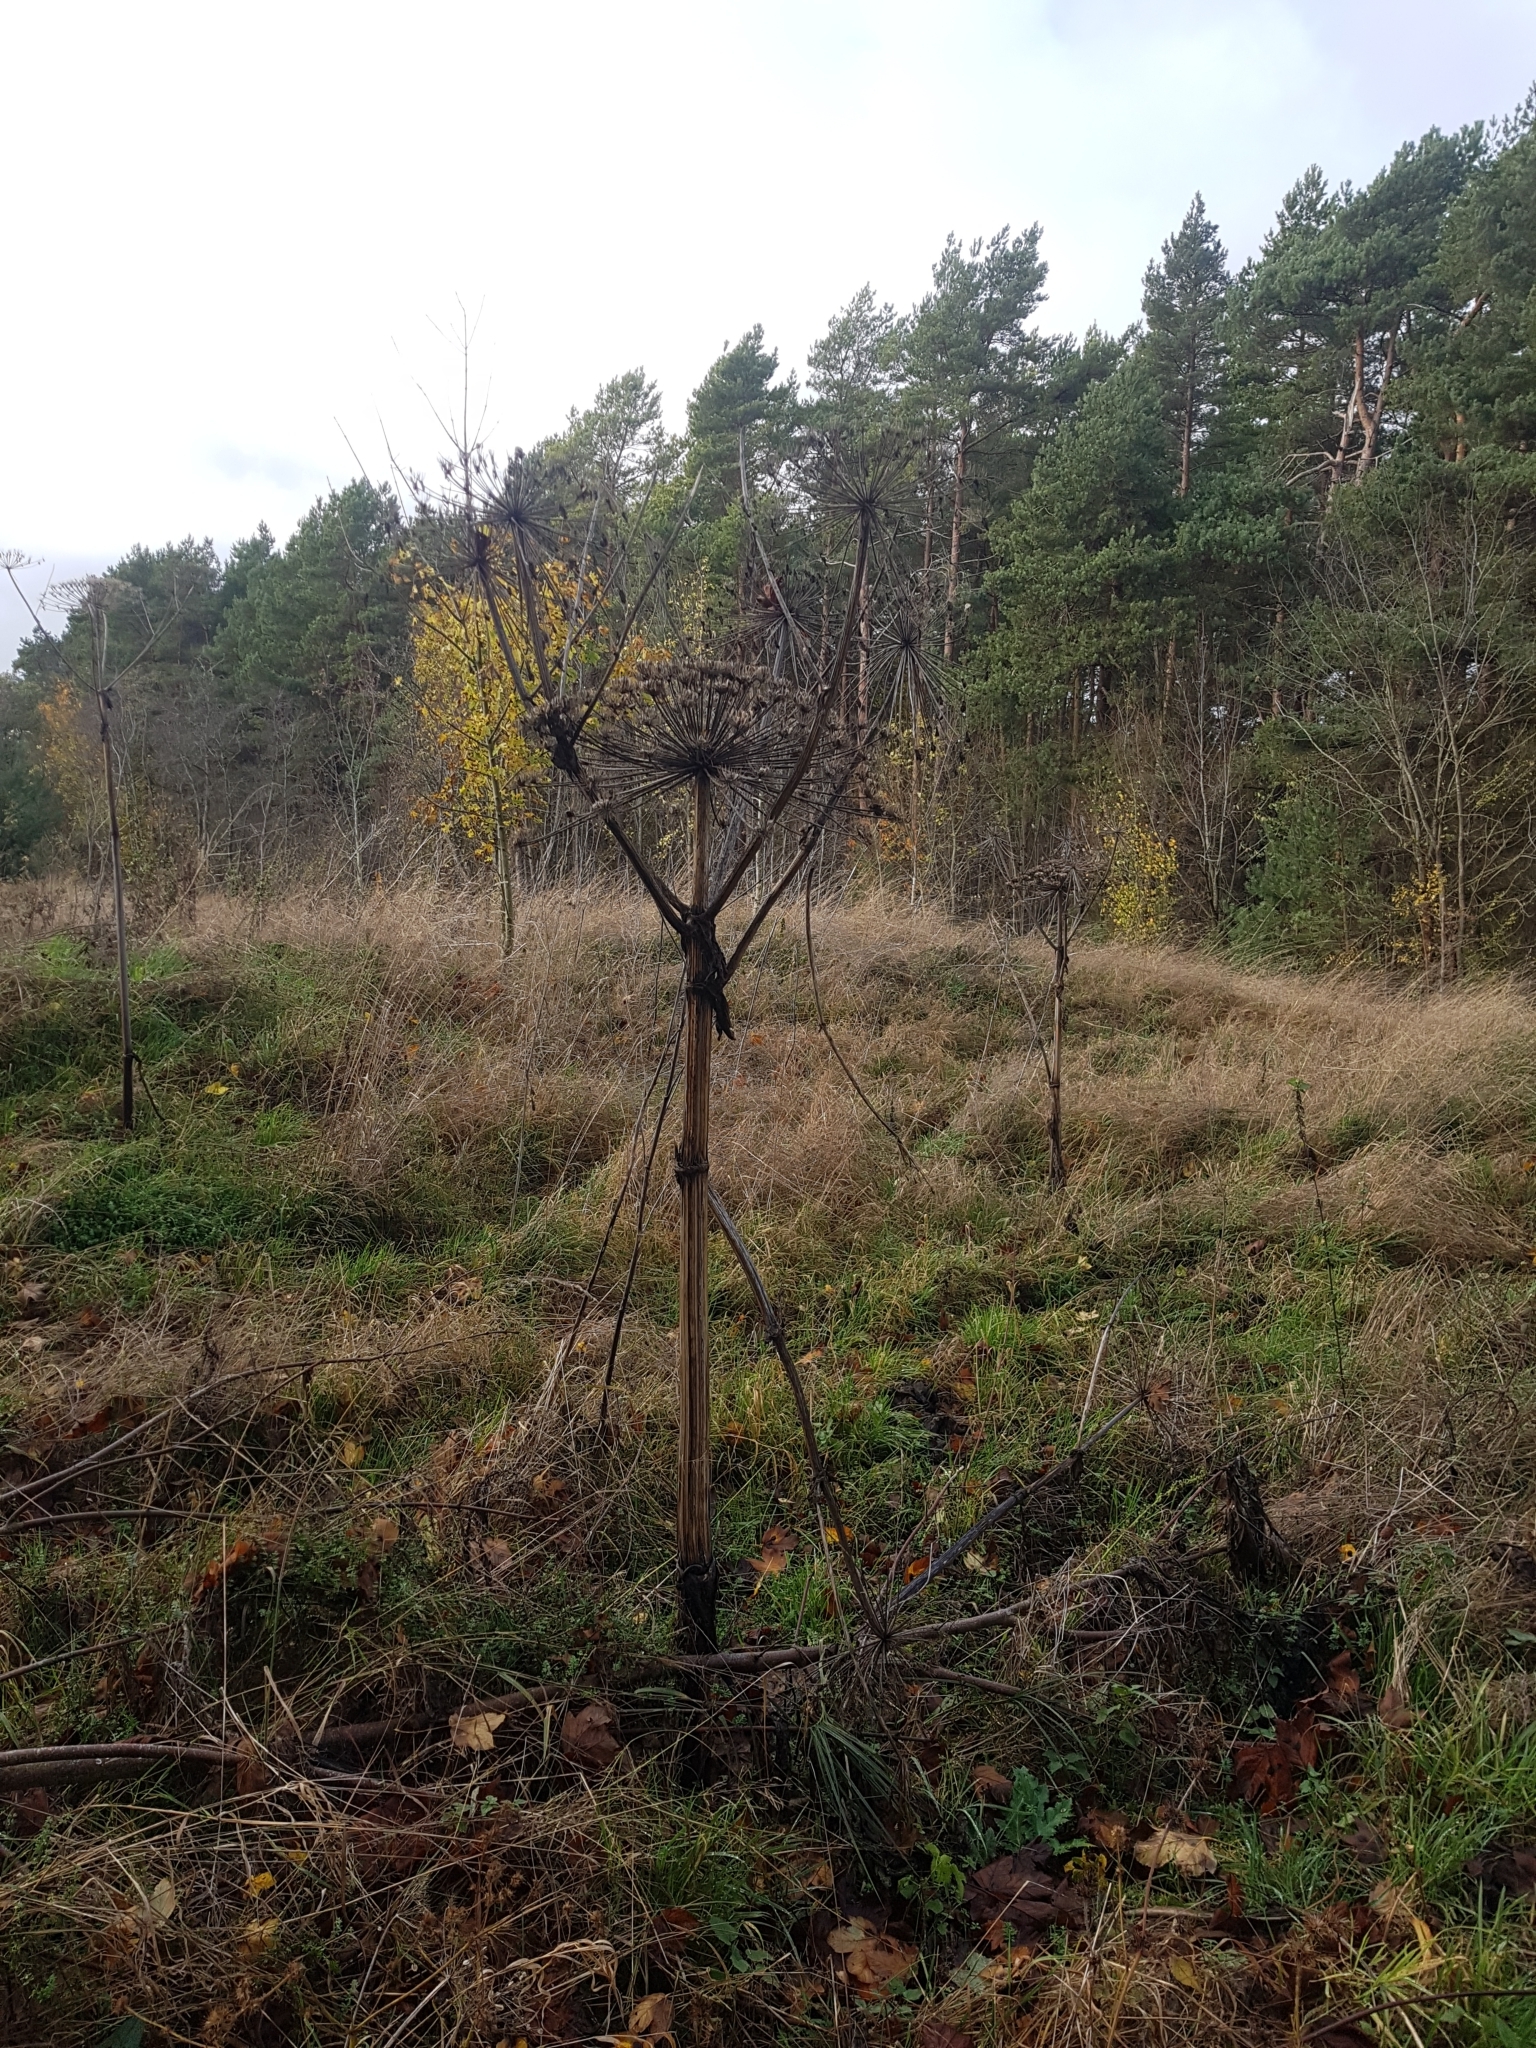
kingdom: Plantae
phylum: Tracheophyta
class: Magnoliopsida
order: Apiales
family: Apiaceae
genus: Heracleum
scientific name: Heracleum mantegazzianum
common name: Giant hogweed
